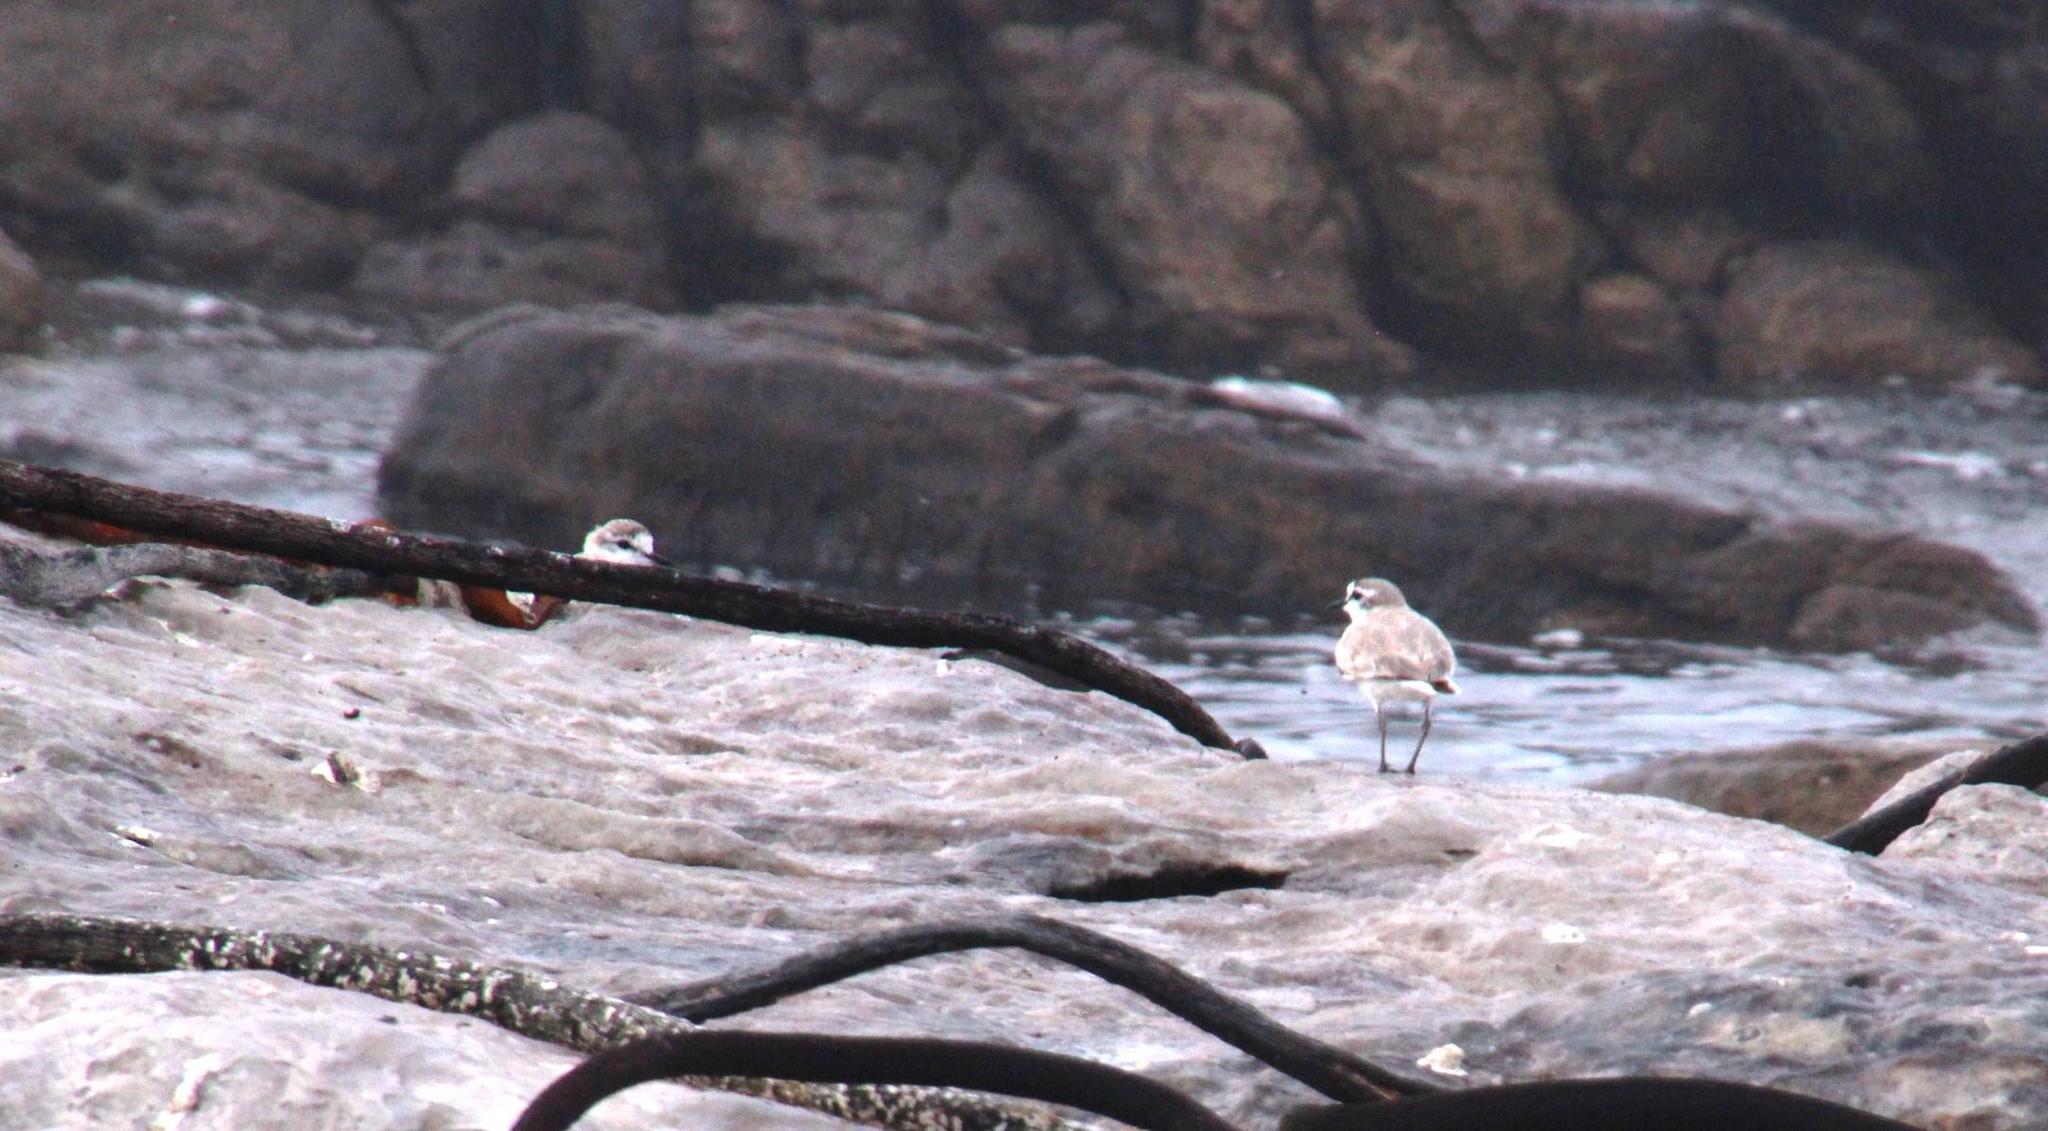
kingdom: Animalia
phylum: Chordata
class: Aves
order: Charadriiformes
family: Charadriidae
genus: Anarhynchus
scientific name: Anarhynchus
